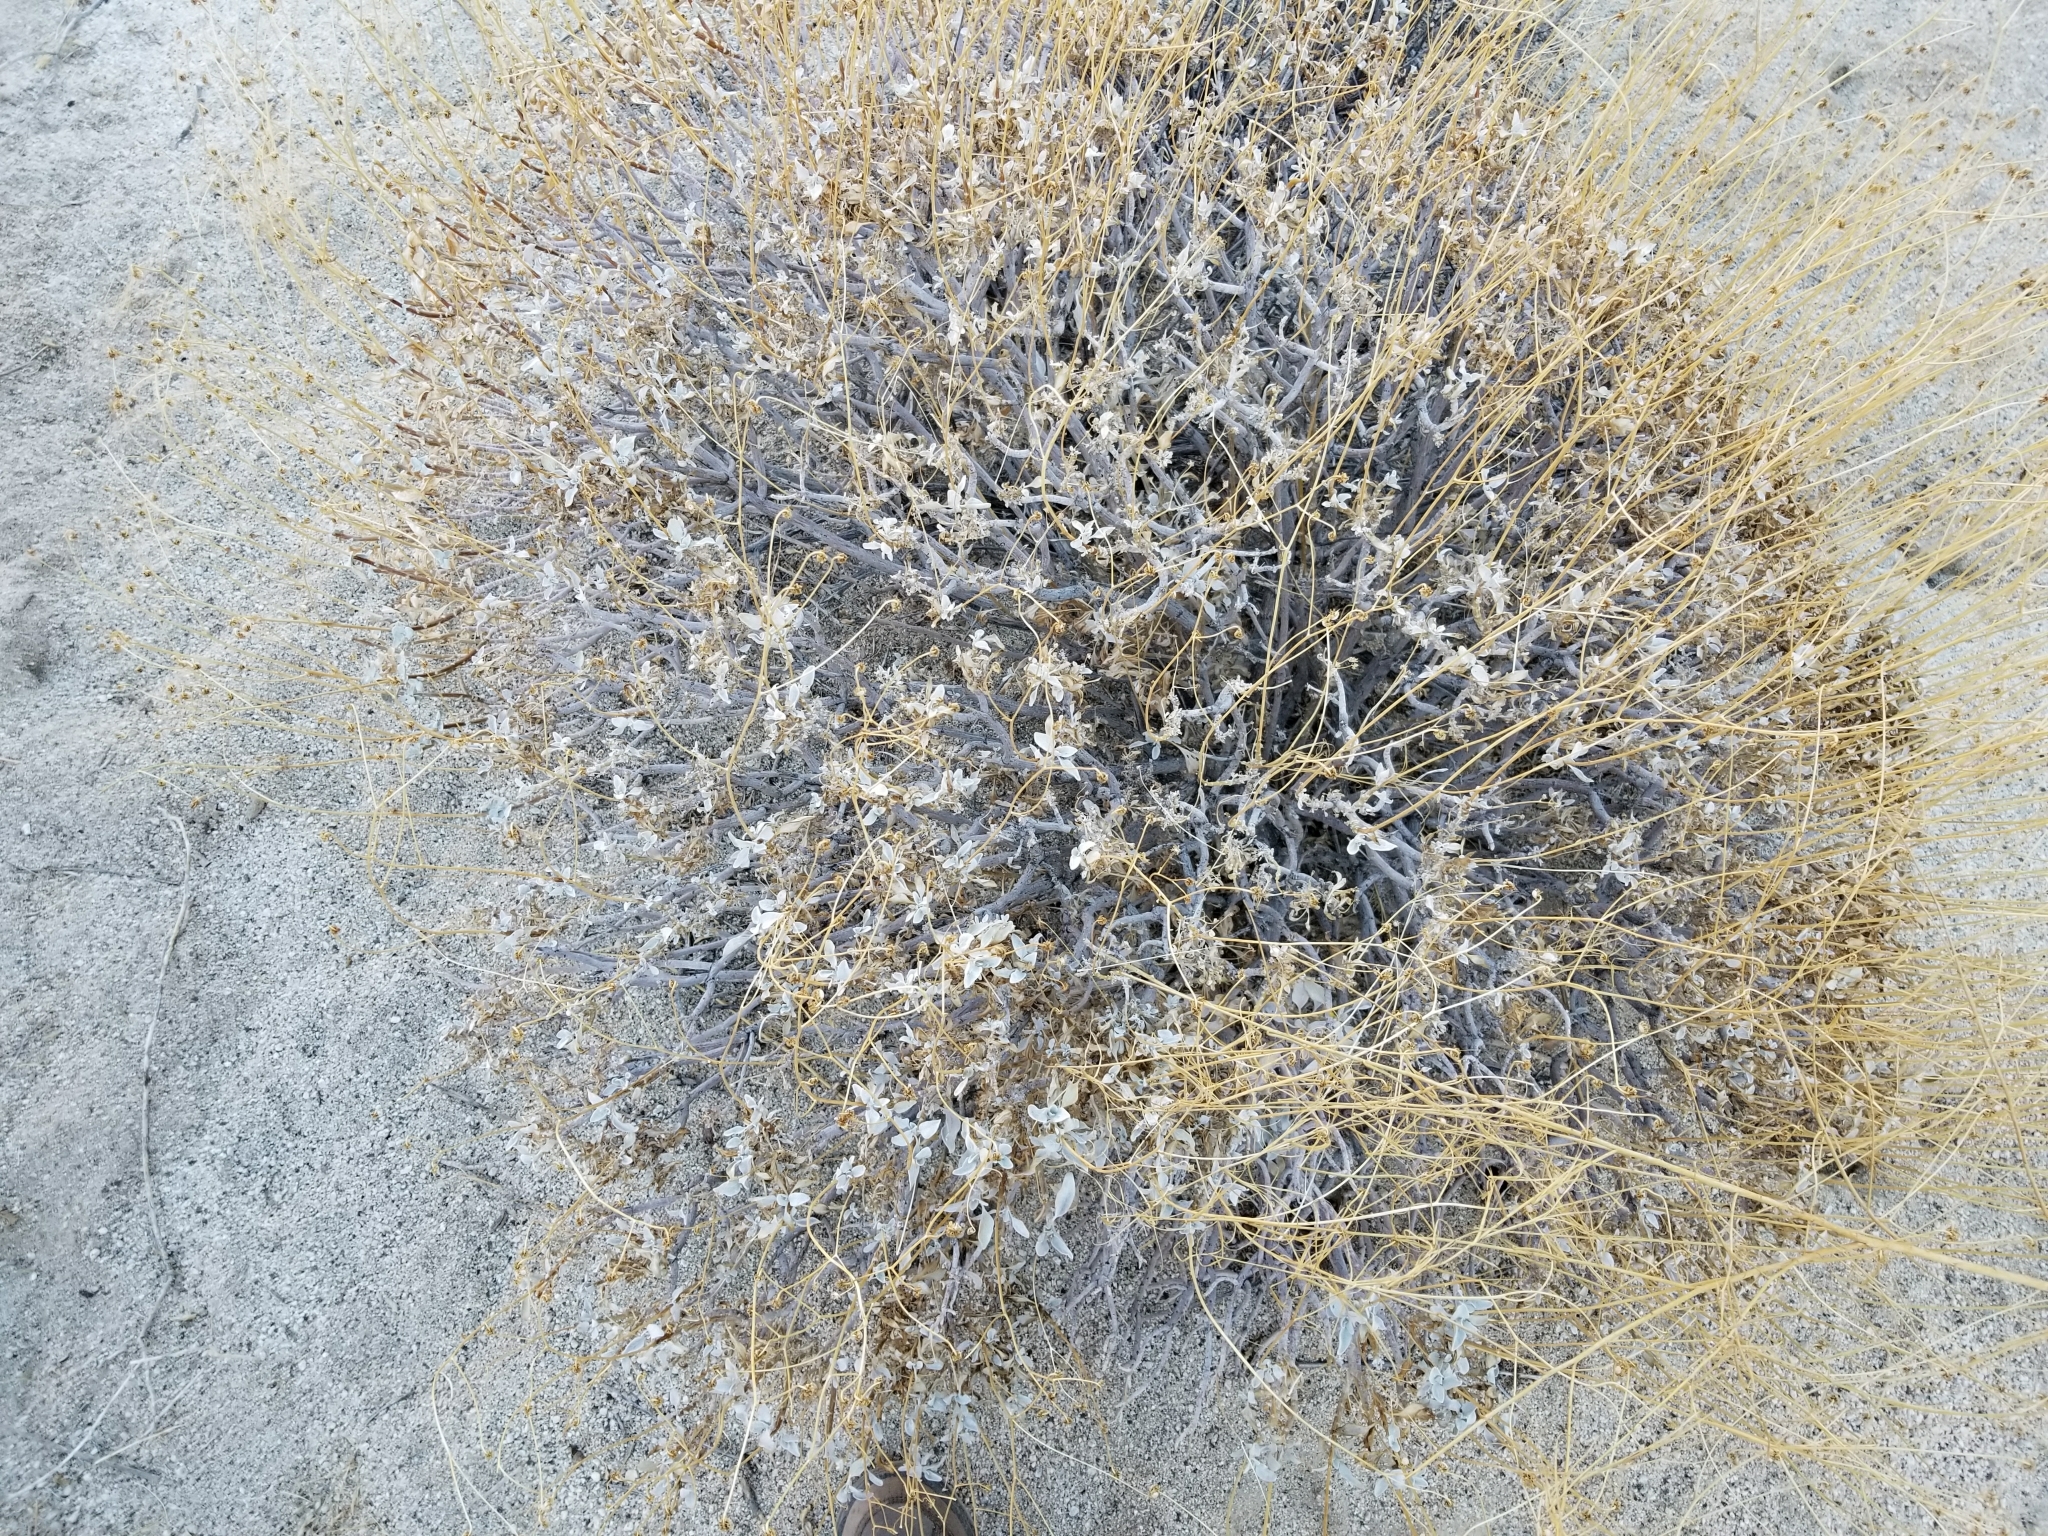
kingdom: Plantae
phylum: Tracheophyta
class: Magnoliopsida
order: Asterales
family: Asteraceae
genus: Encelia
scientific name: Encelia farinosa
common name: Brittlebush
